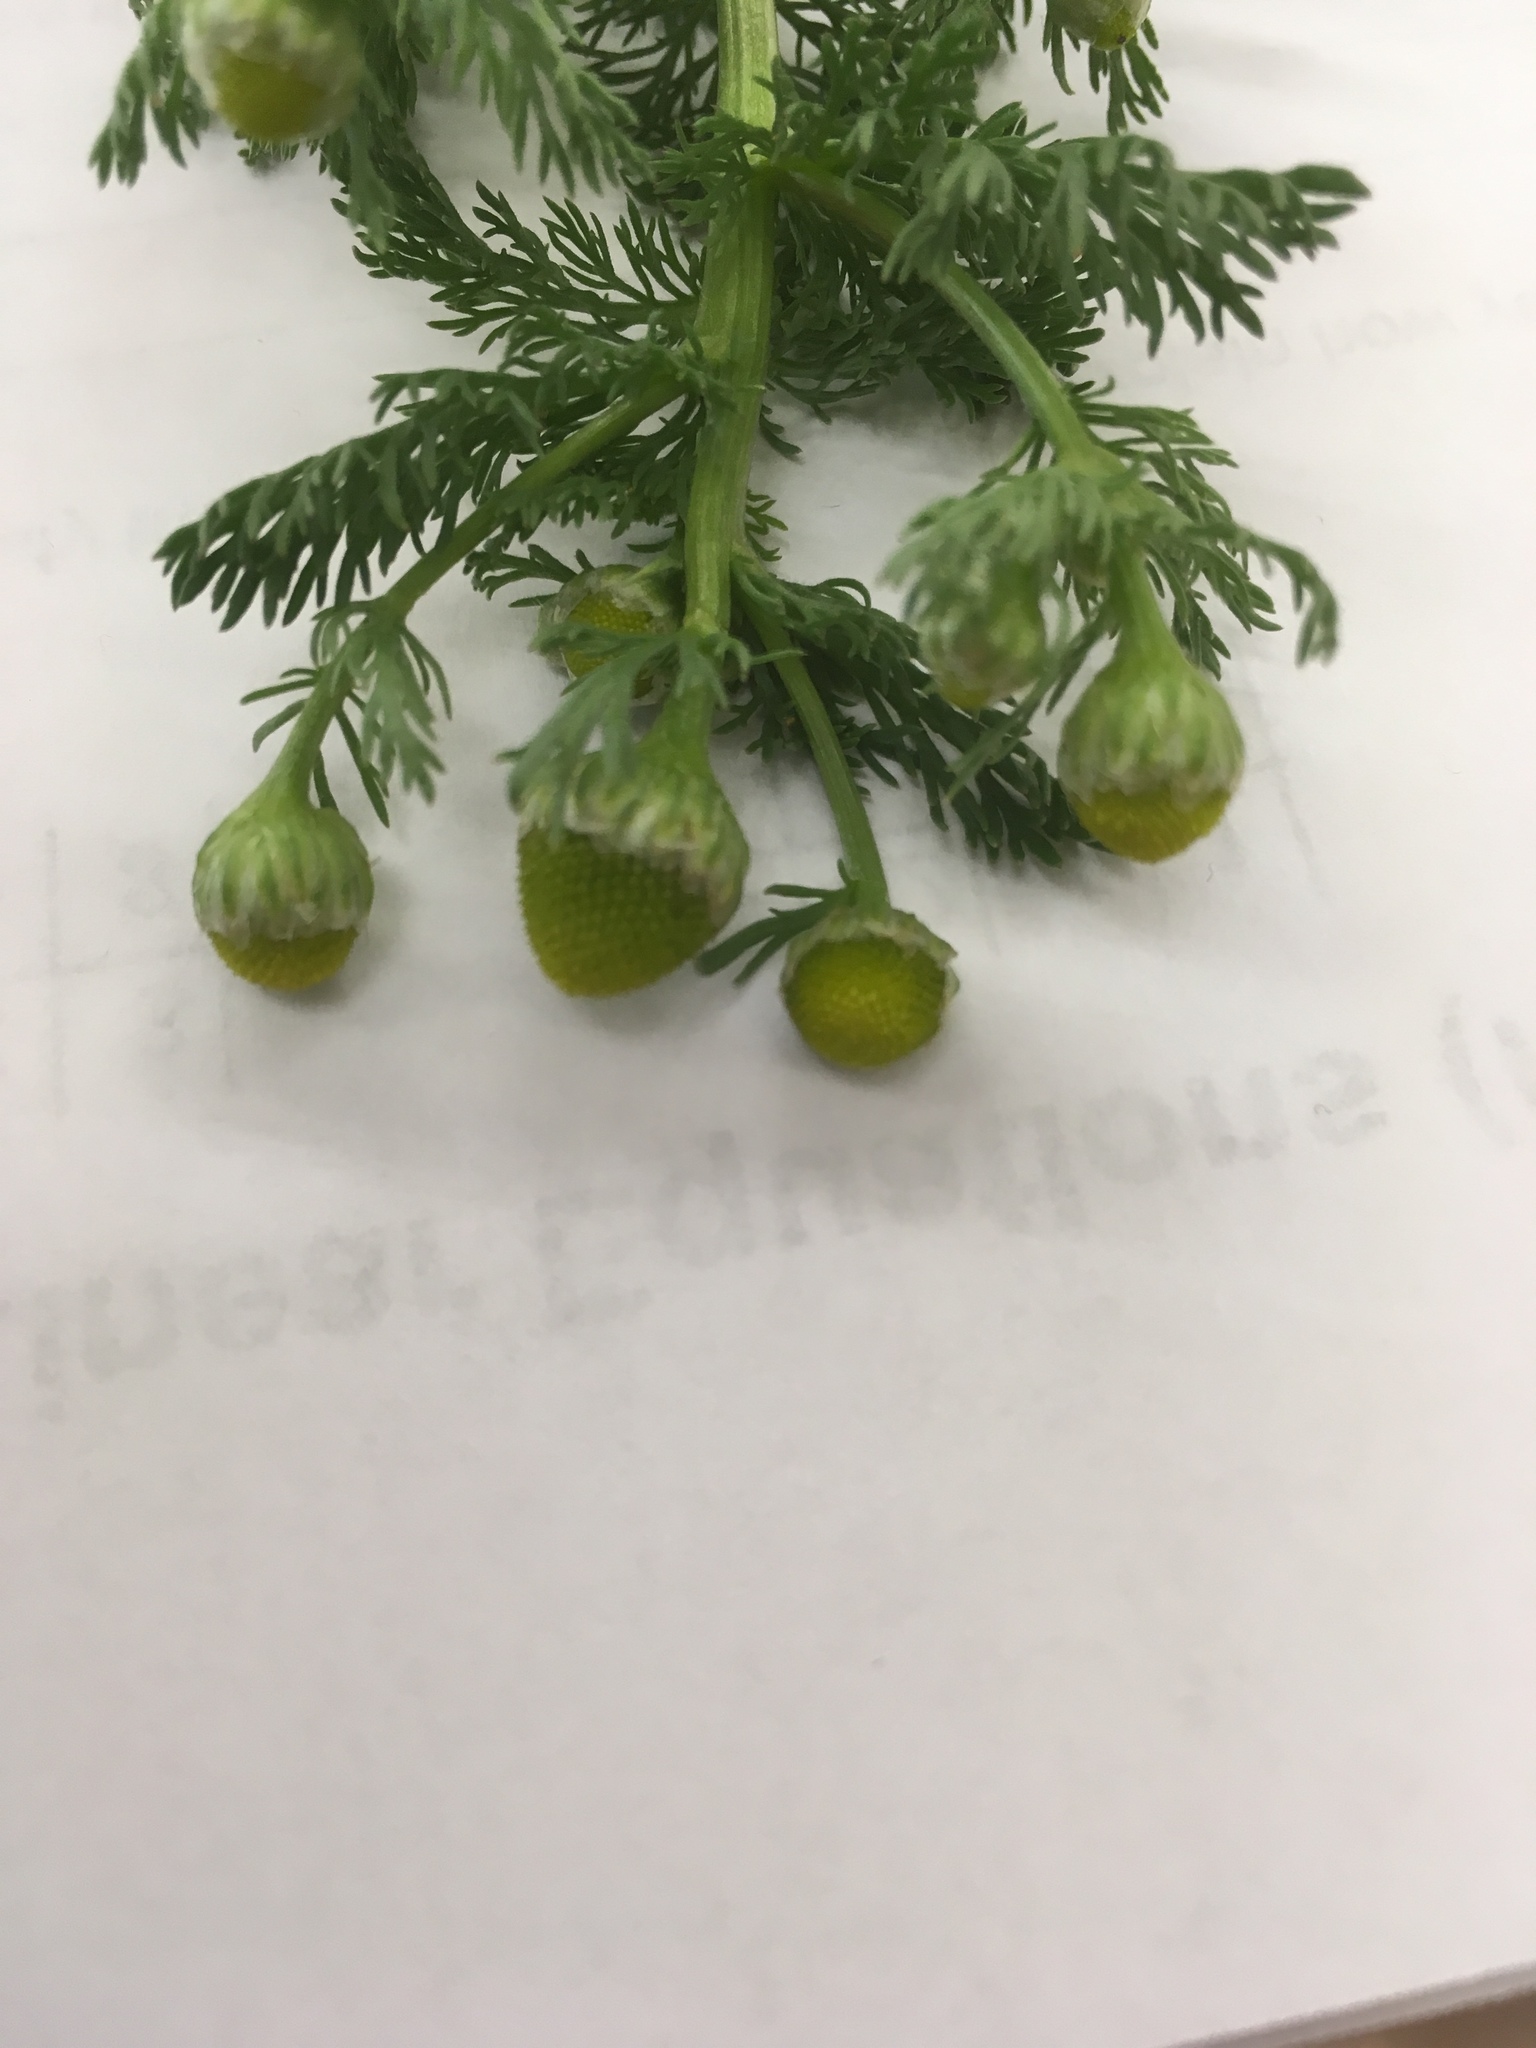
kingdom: Plantae
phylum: Tracheophyta
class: Magnoliopsida
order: Asterales
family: Asteraceae
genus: Matricaria
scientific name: Matricaria discoidea
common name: Disc mayweed
